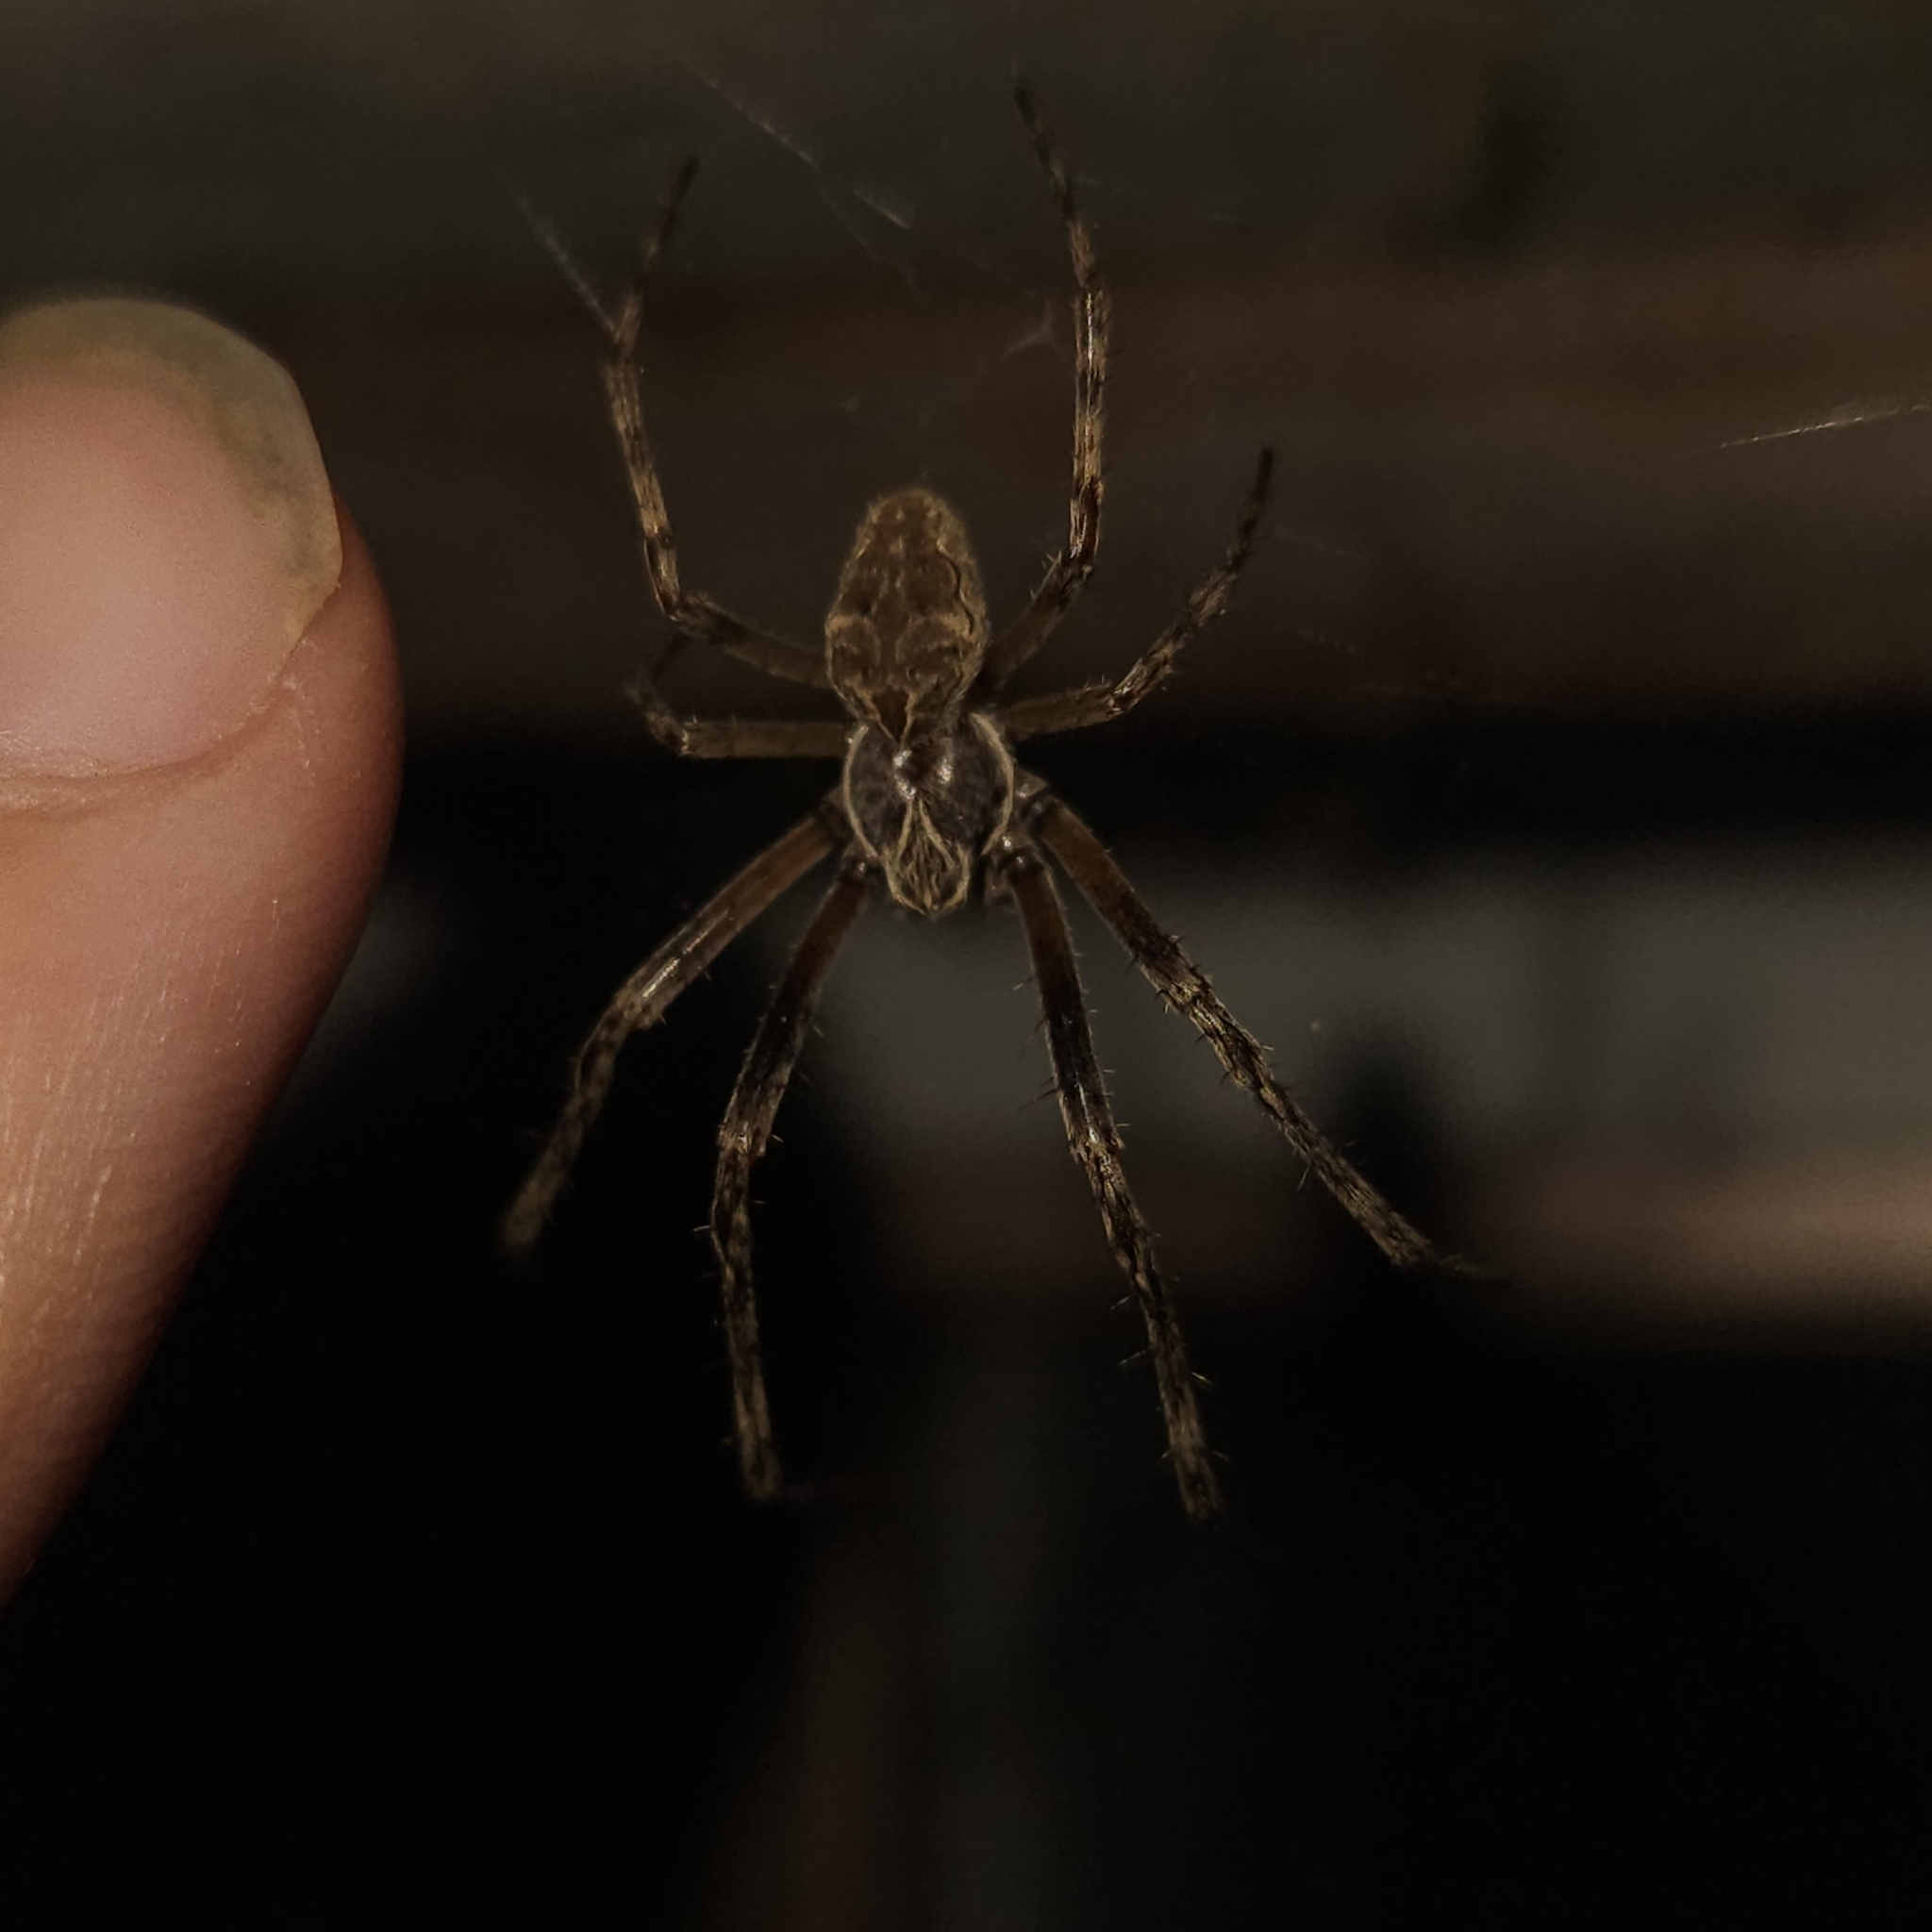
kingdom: Animalia
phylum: Arthropoda
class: Arachnida
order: Araneae
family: Araneidae
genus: Larinioides
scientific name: Larinioides sclopetarius
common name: Bridge orbweaver
